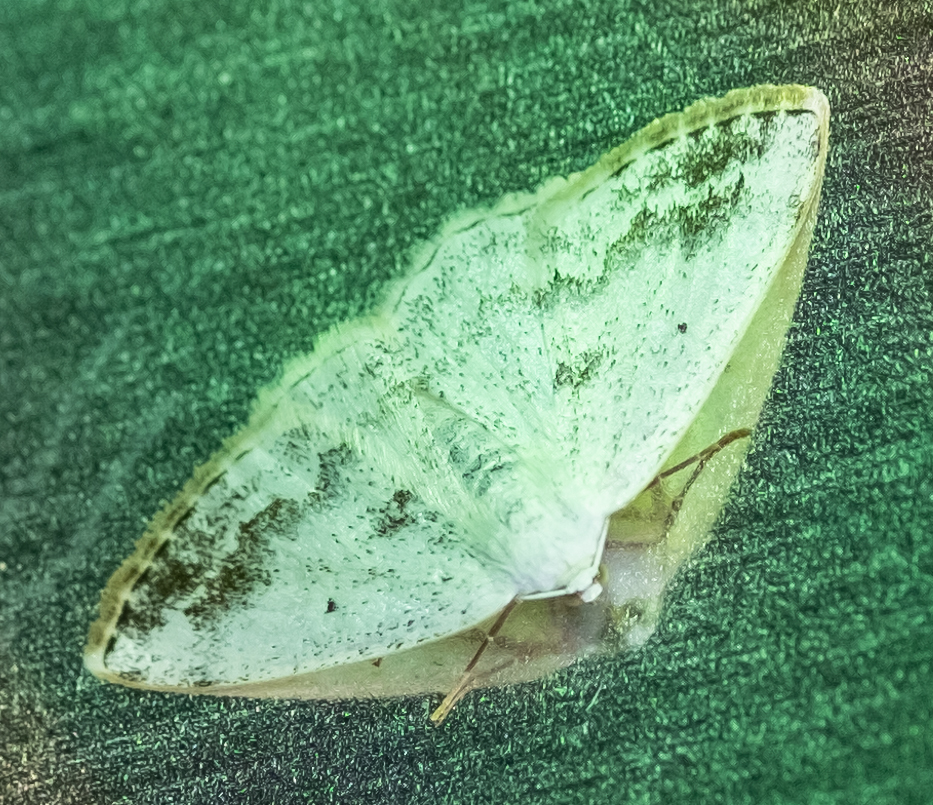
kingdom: Animalia
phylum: Arthropoda
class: Insecta
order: Lepidoptera
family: Geometridae
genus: Lomographa
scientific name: Lomographa temerata
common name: Clouded silver
